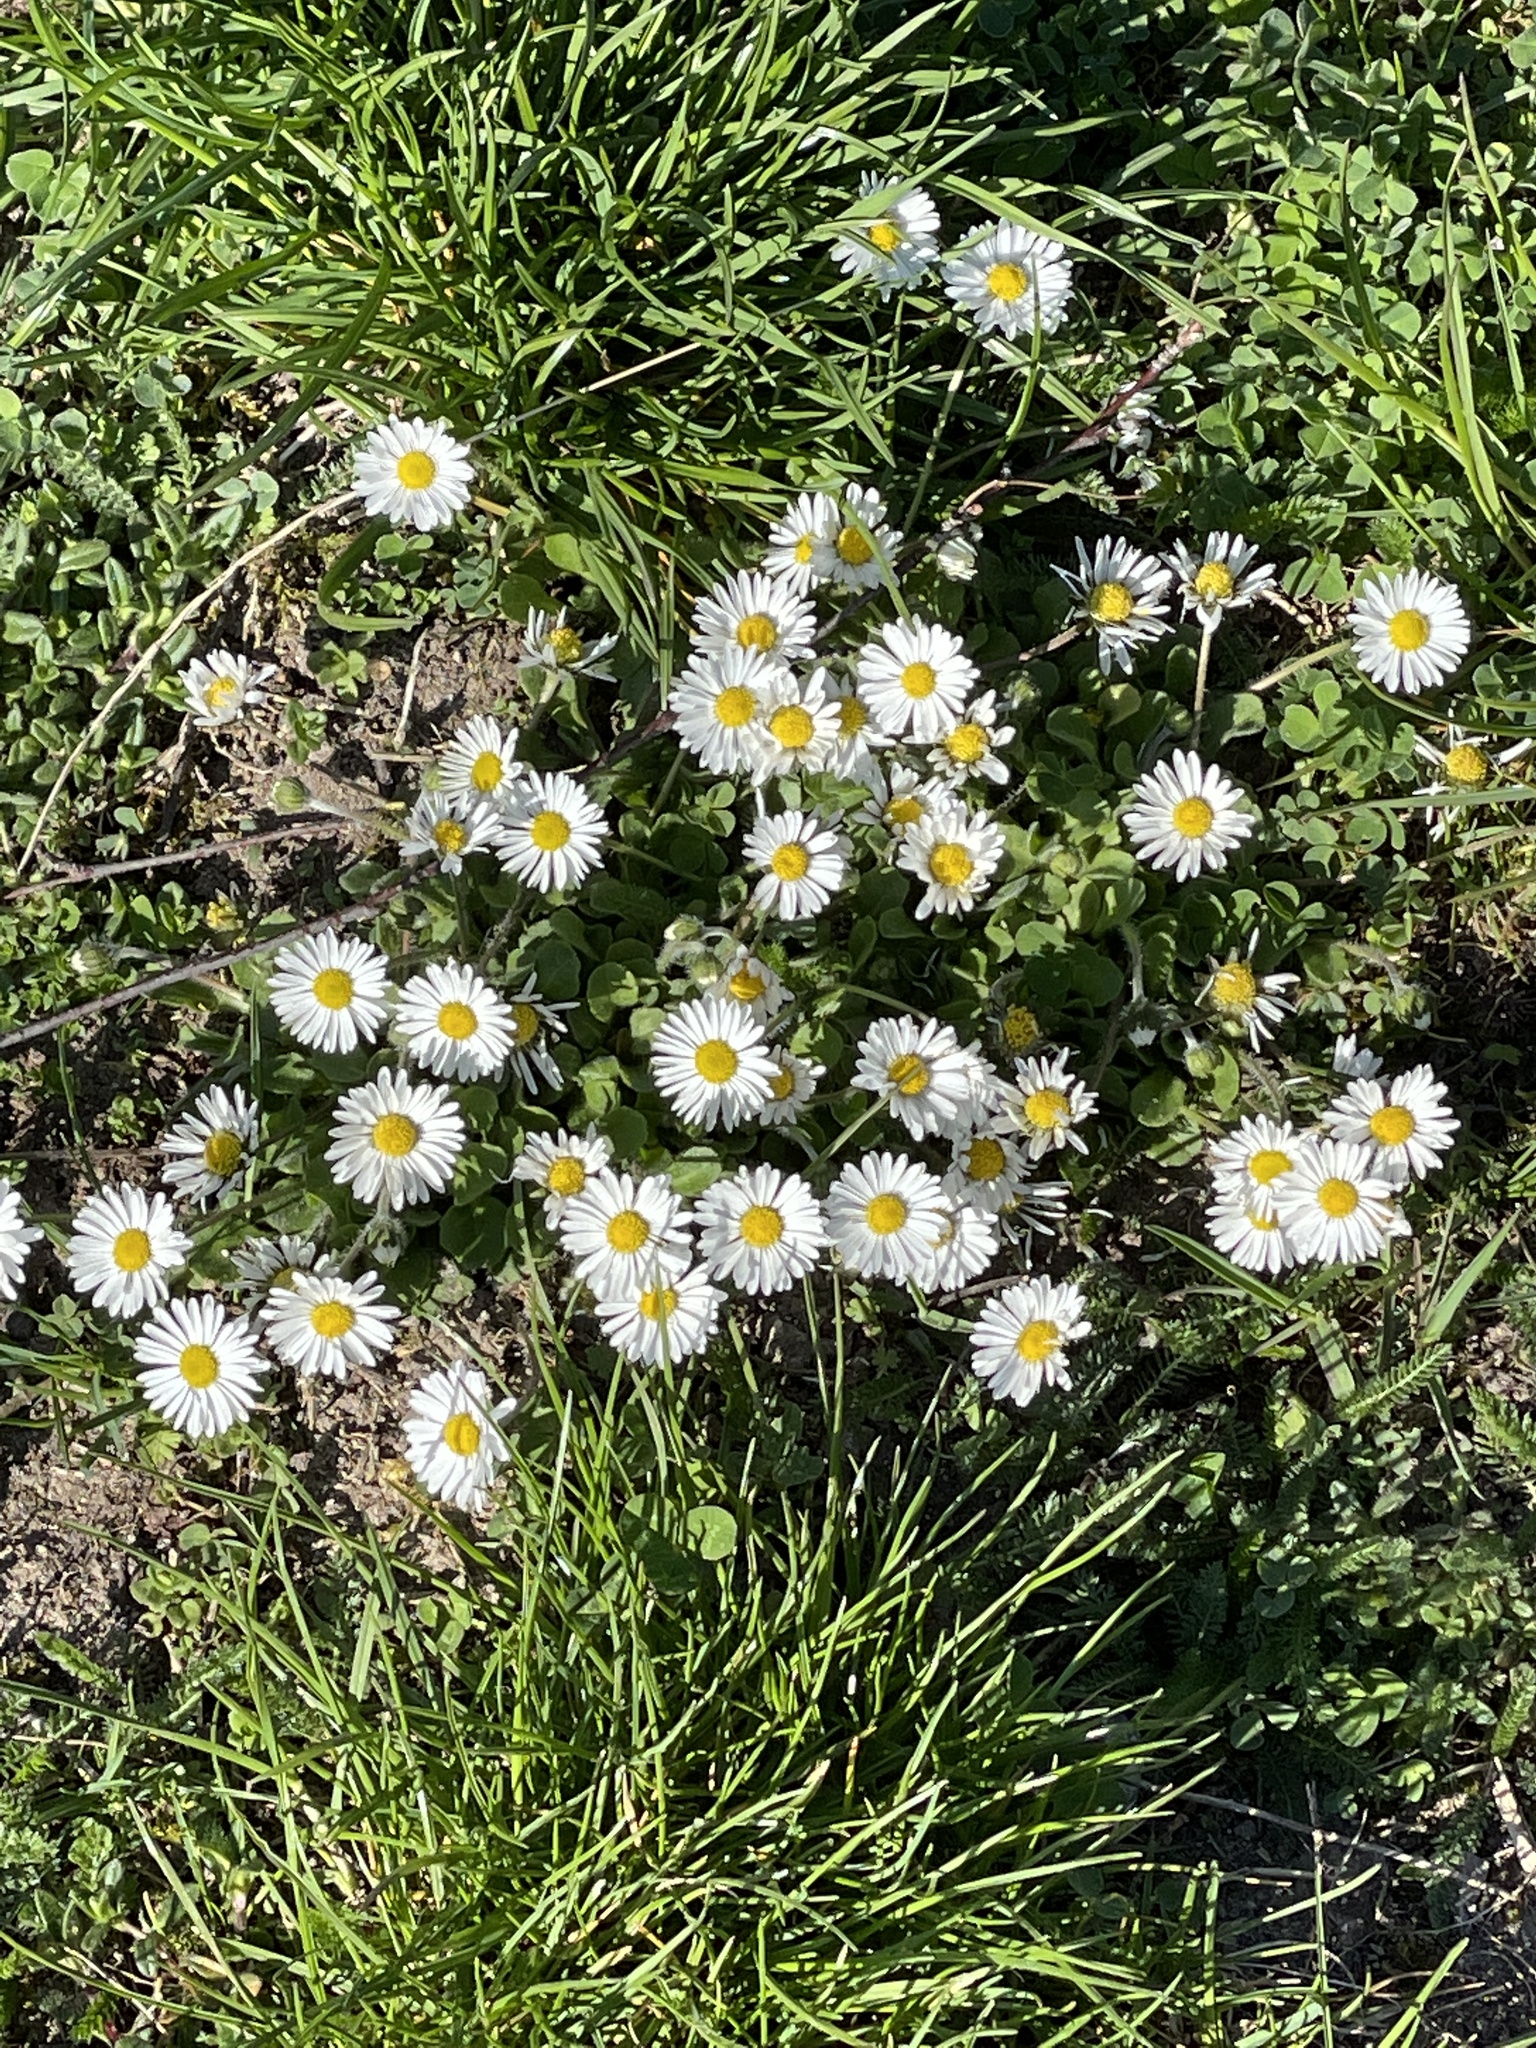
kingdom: Plantae
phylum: Tracheophyta
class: Magnoliopsida
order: Asterales
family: Asteraceae
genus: Bellis
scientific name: Bellis perennis
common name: Lawndaisy
